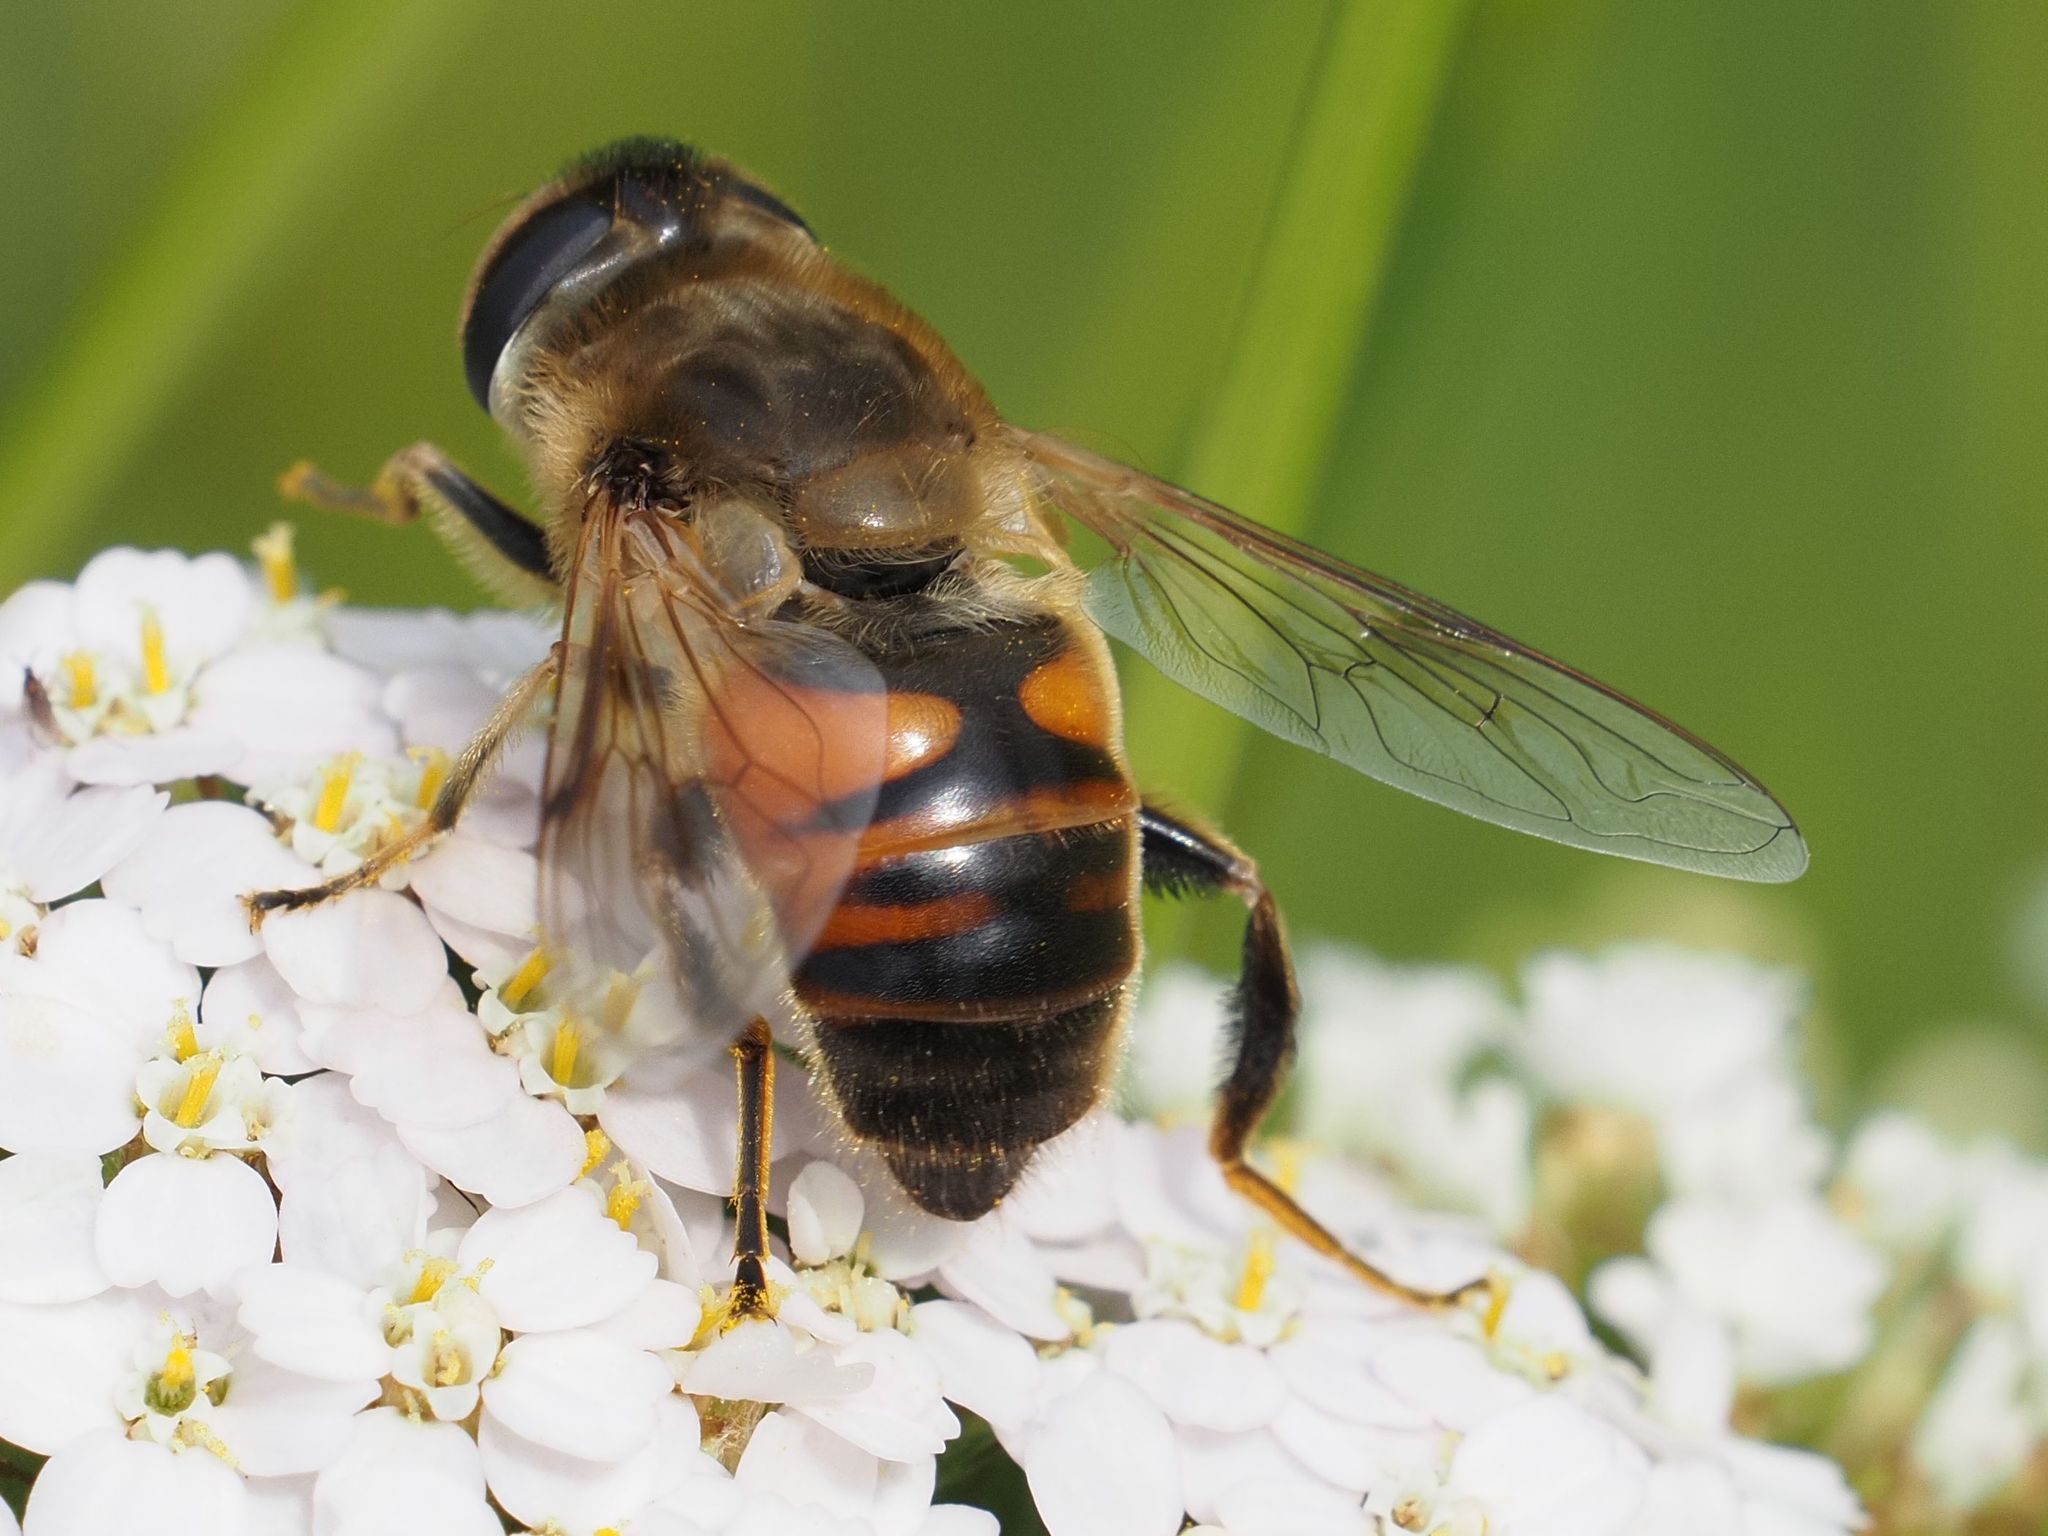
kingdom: Animalia
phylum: Arthropoda
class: Insecta
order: Diptera
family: Syrphidae
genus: Eristalis
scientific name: Eristalis tenax
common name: Drone fly
